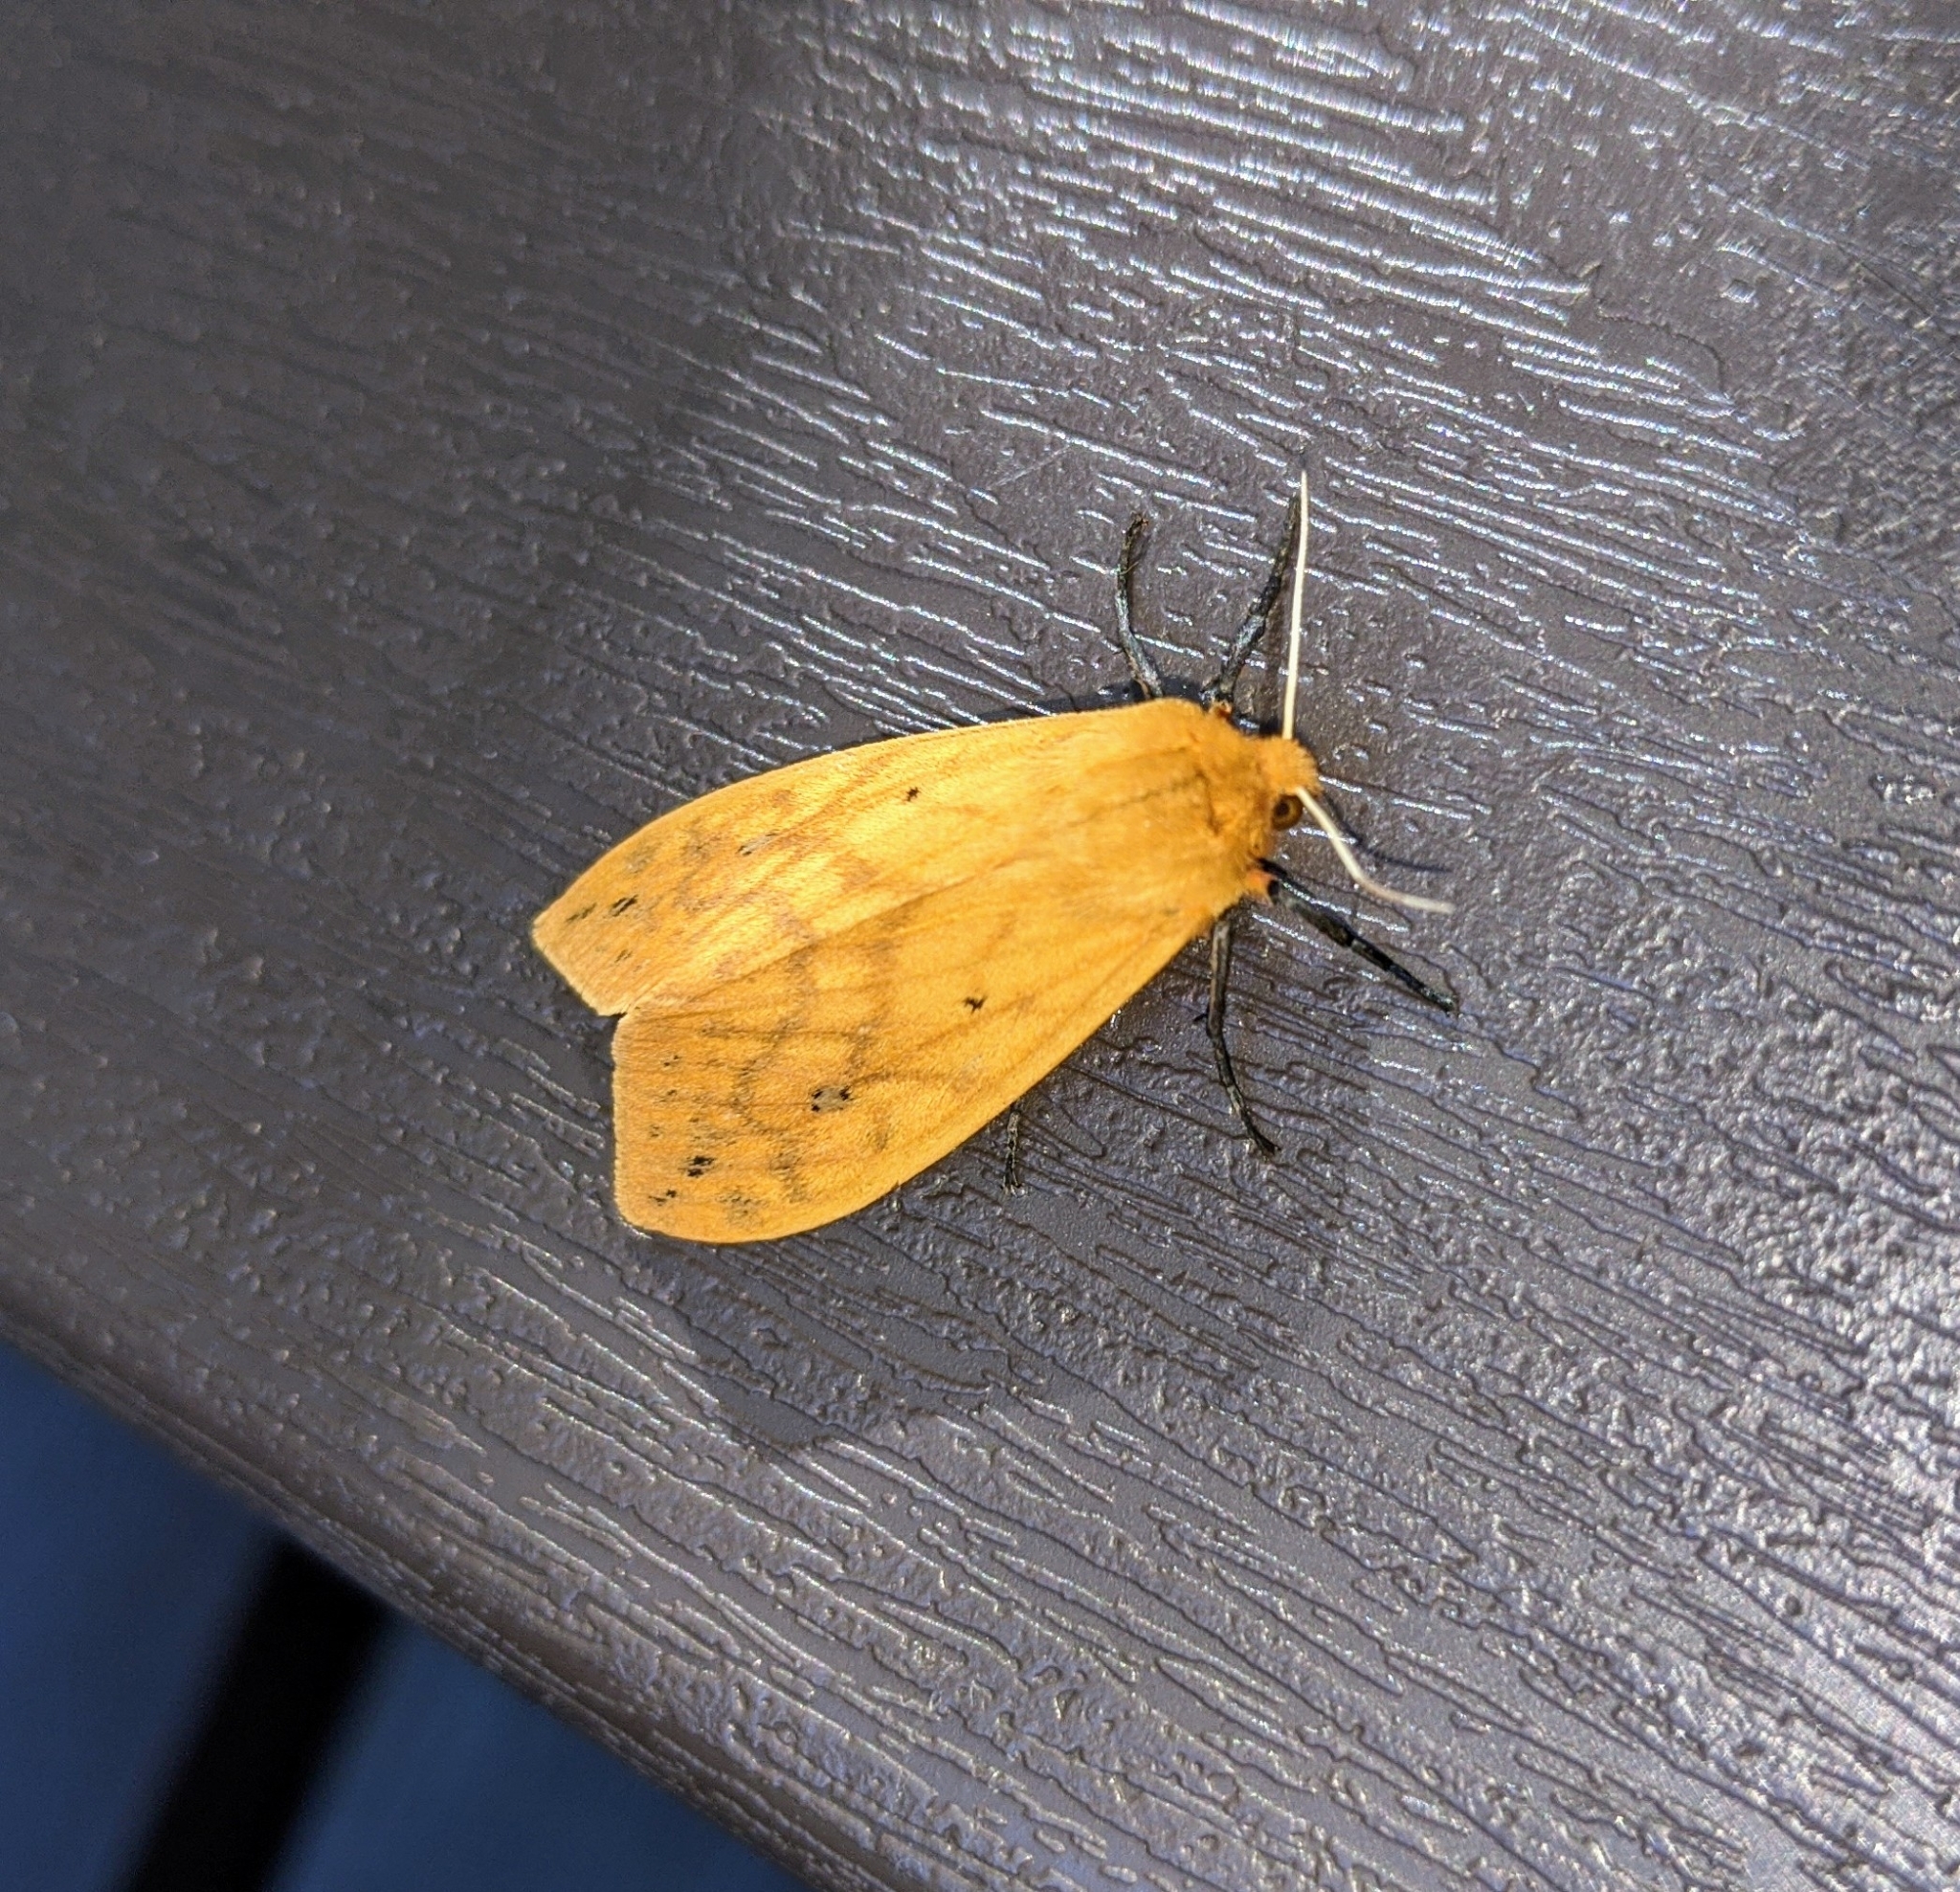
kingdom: Animalia
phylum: Arthropoda
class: Insecta
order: Lepidoptera
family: Erebidae
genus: Pyrrharctia
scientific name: Pyrrharctia isabella
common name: Isabella tiger moth
